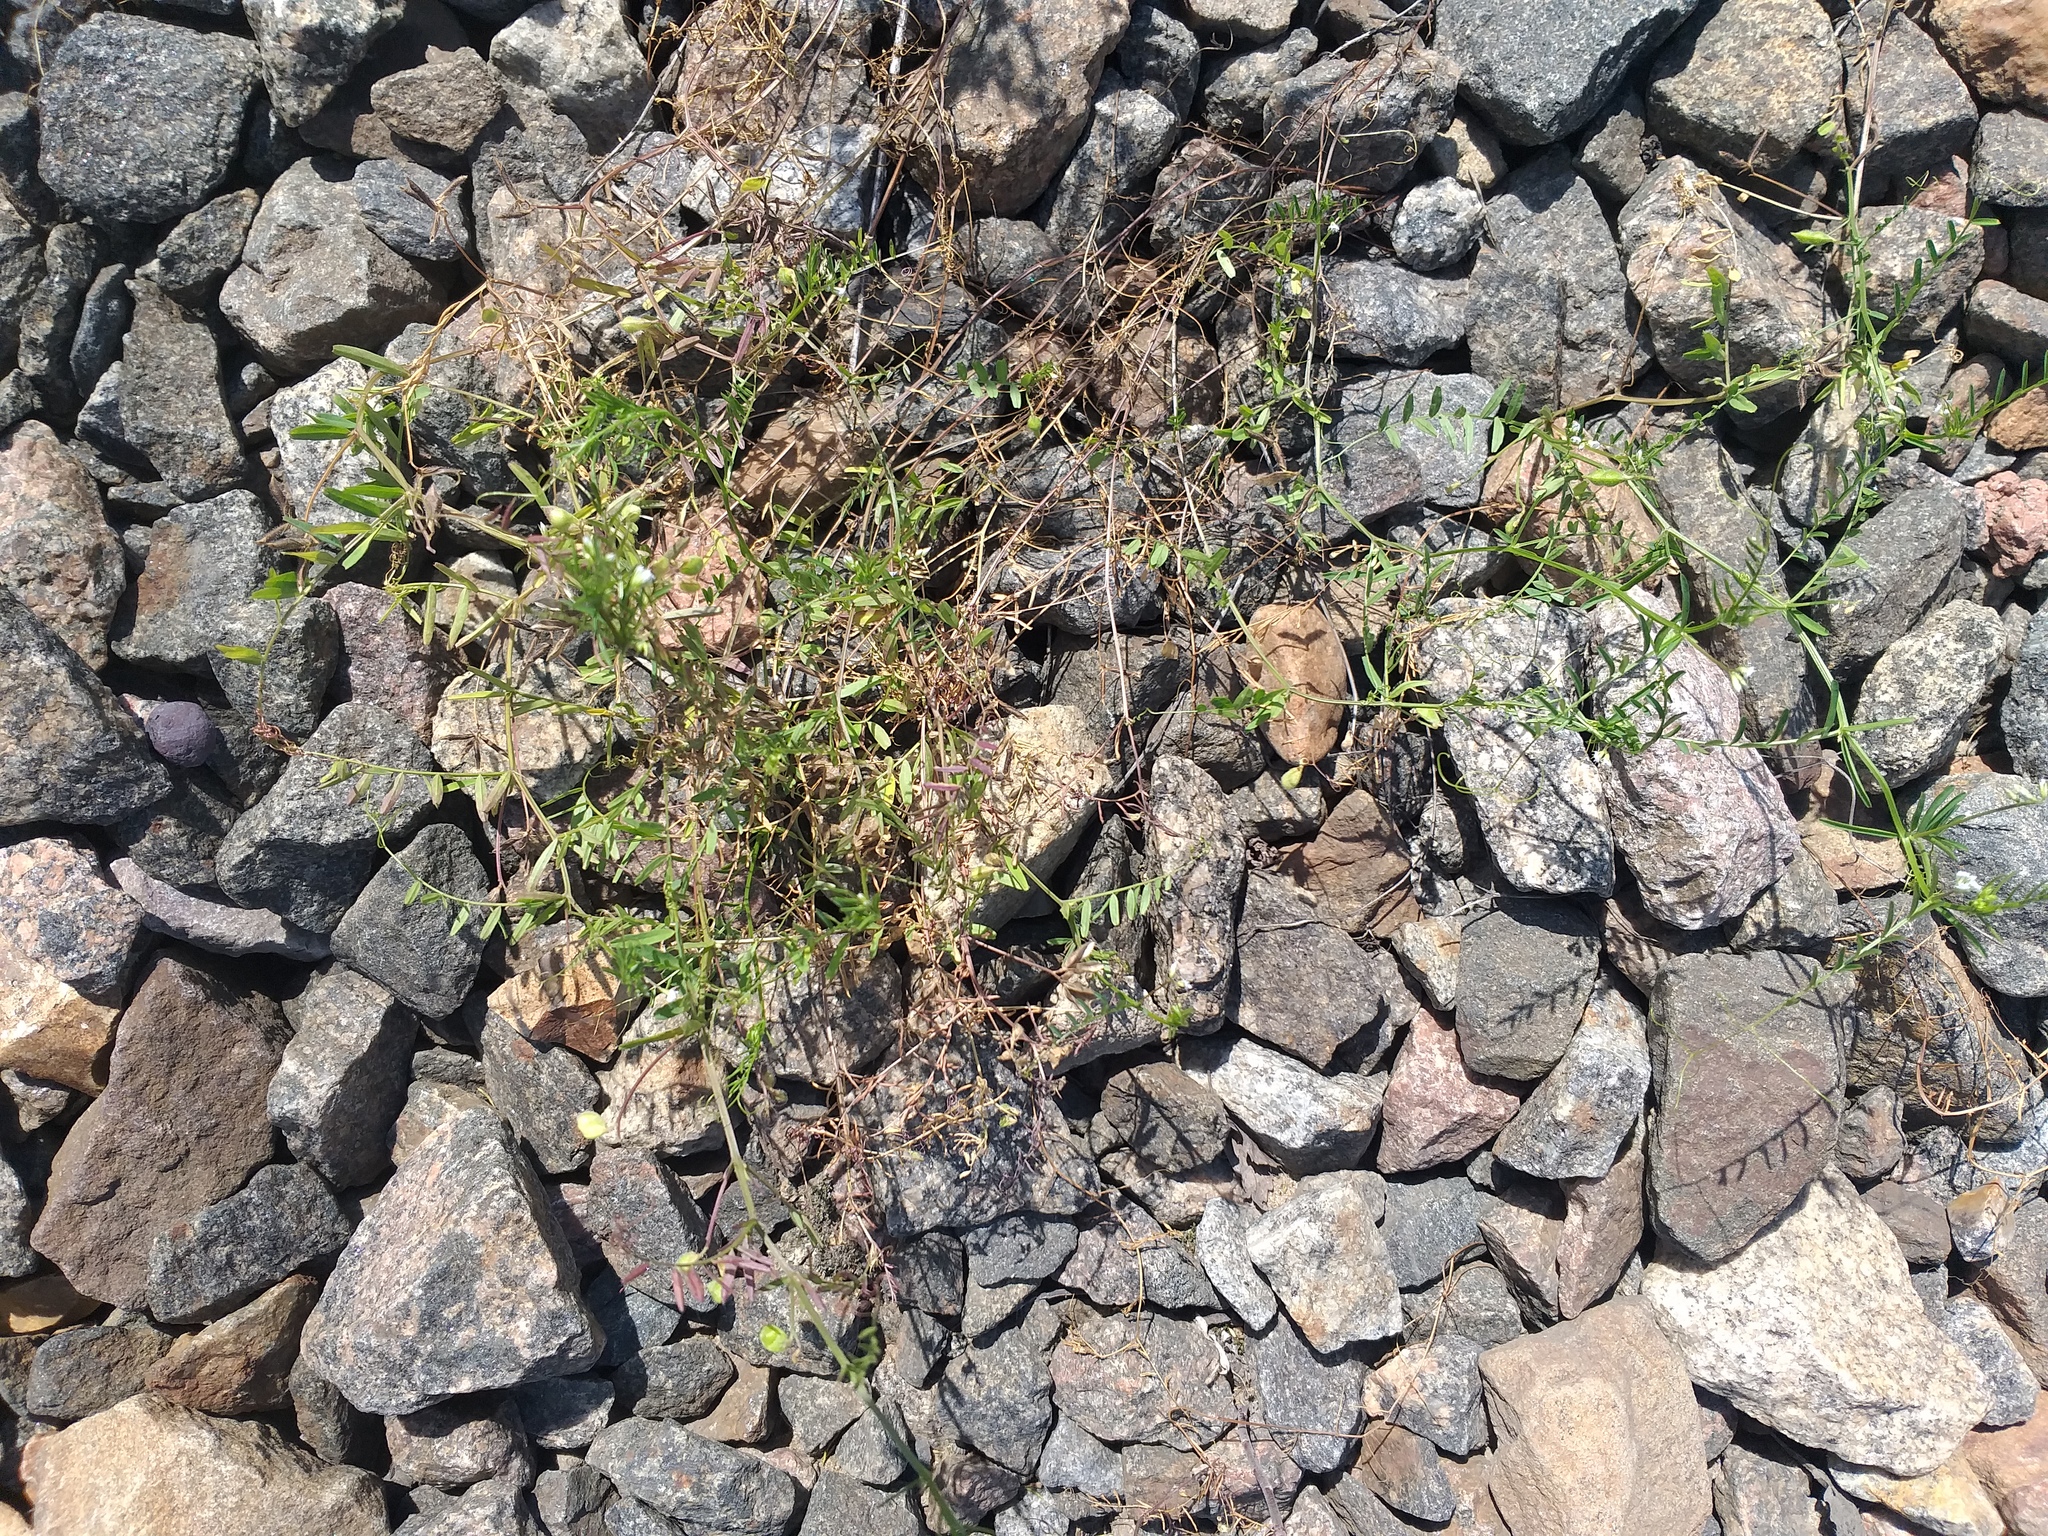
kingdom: Plantae
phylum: Tracheophyta
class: Magnoliopsida
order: Fabales
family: Fabaceae
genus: Vicia
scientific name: Vicia hirsuta
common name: Tiny vetch
